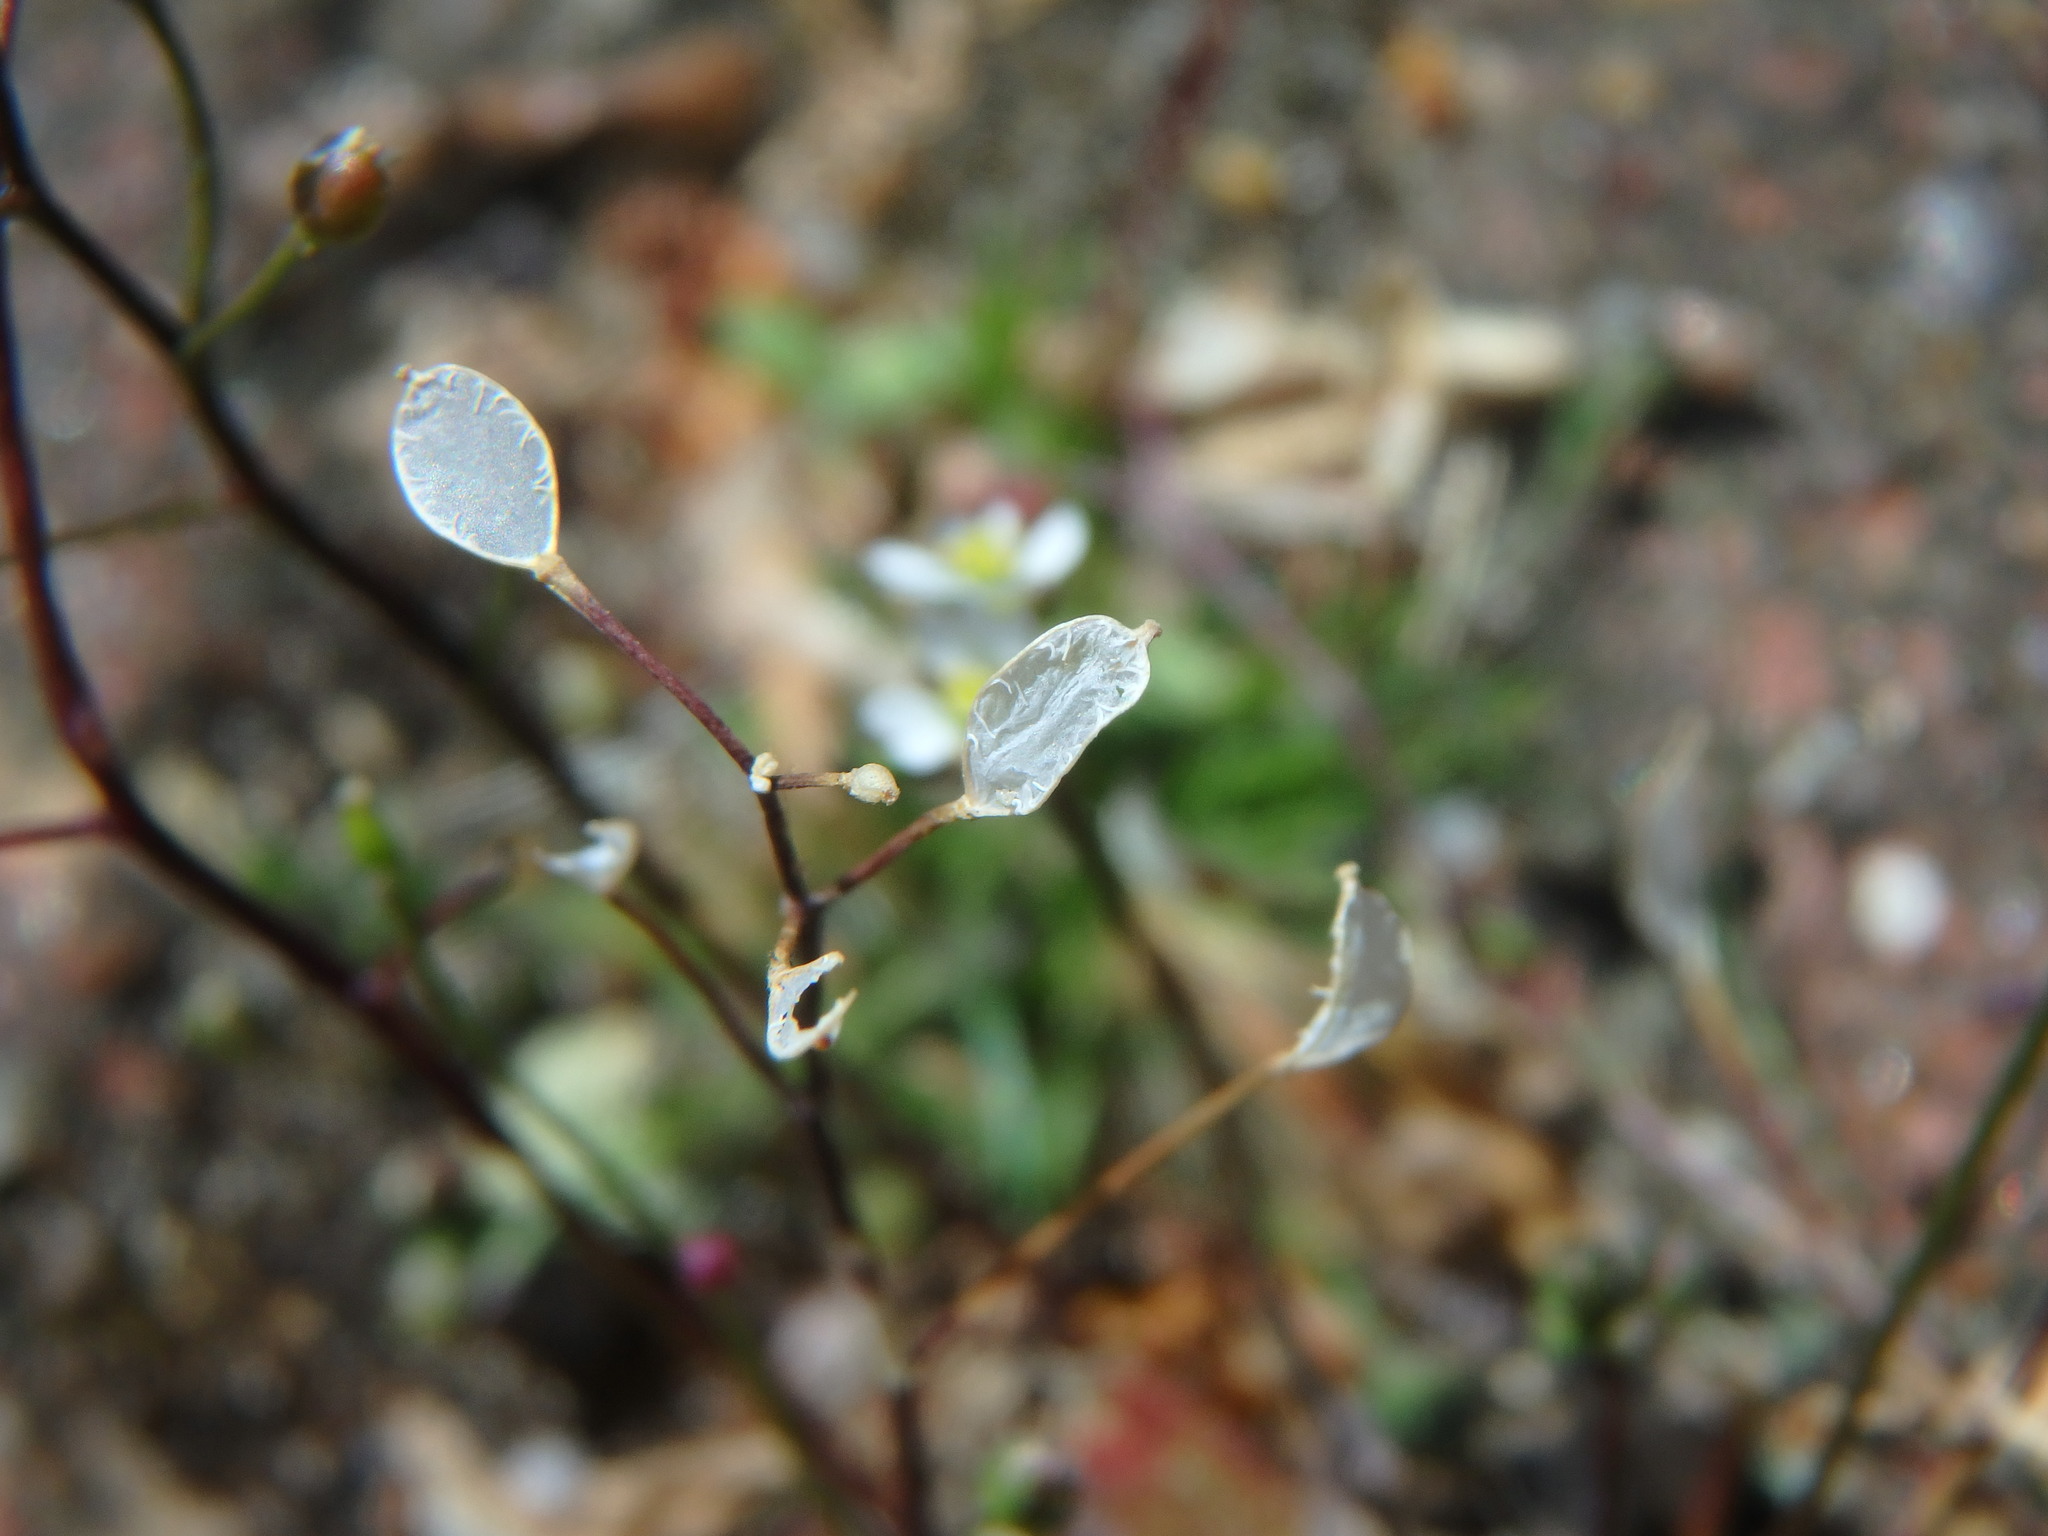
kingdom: Plantae
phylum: Tracheophyta
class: Magnoliopsida
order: Brassicales
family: Brassicaceae
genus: Draba
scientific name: Draba verna
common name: Spring draba
